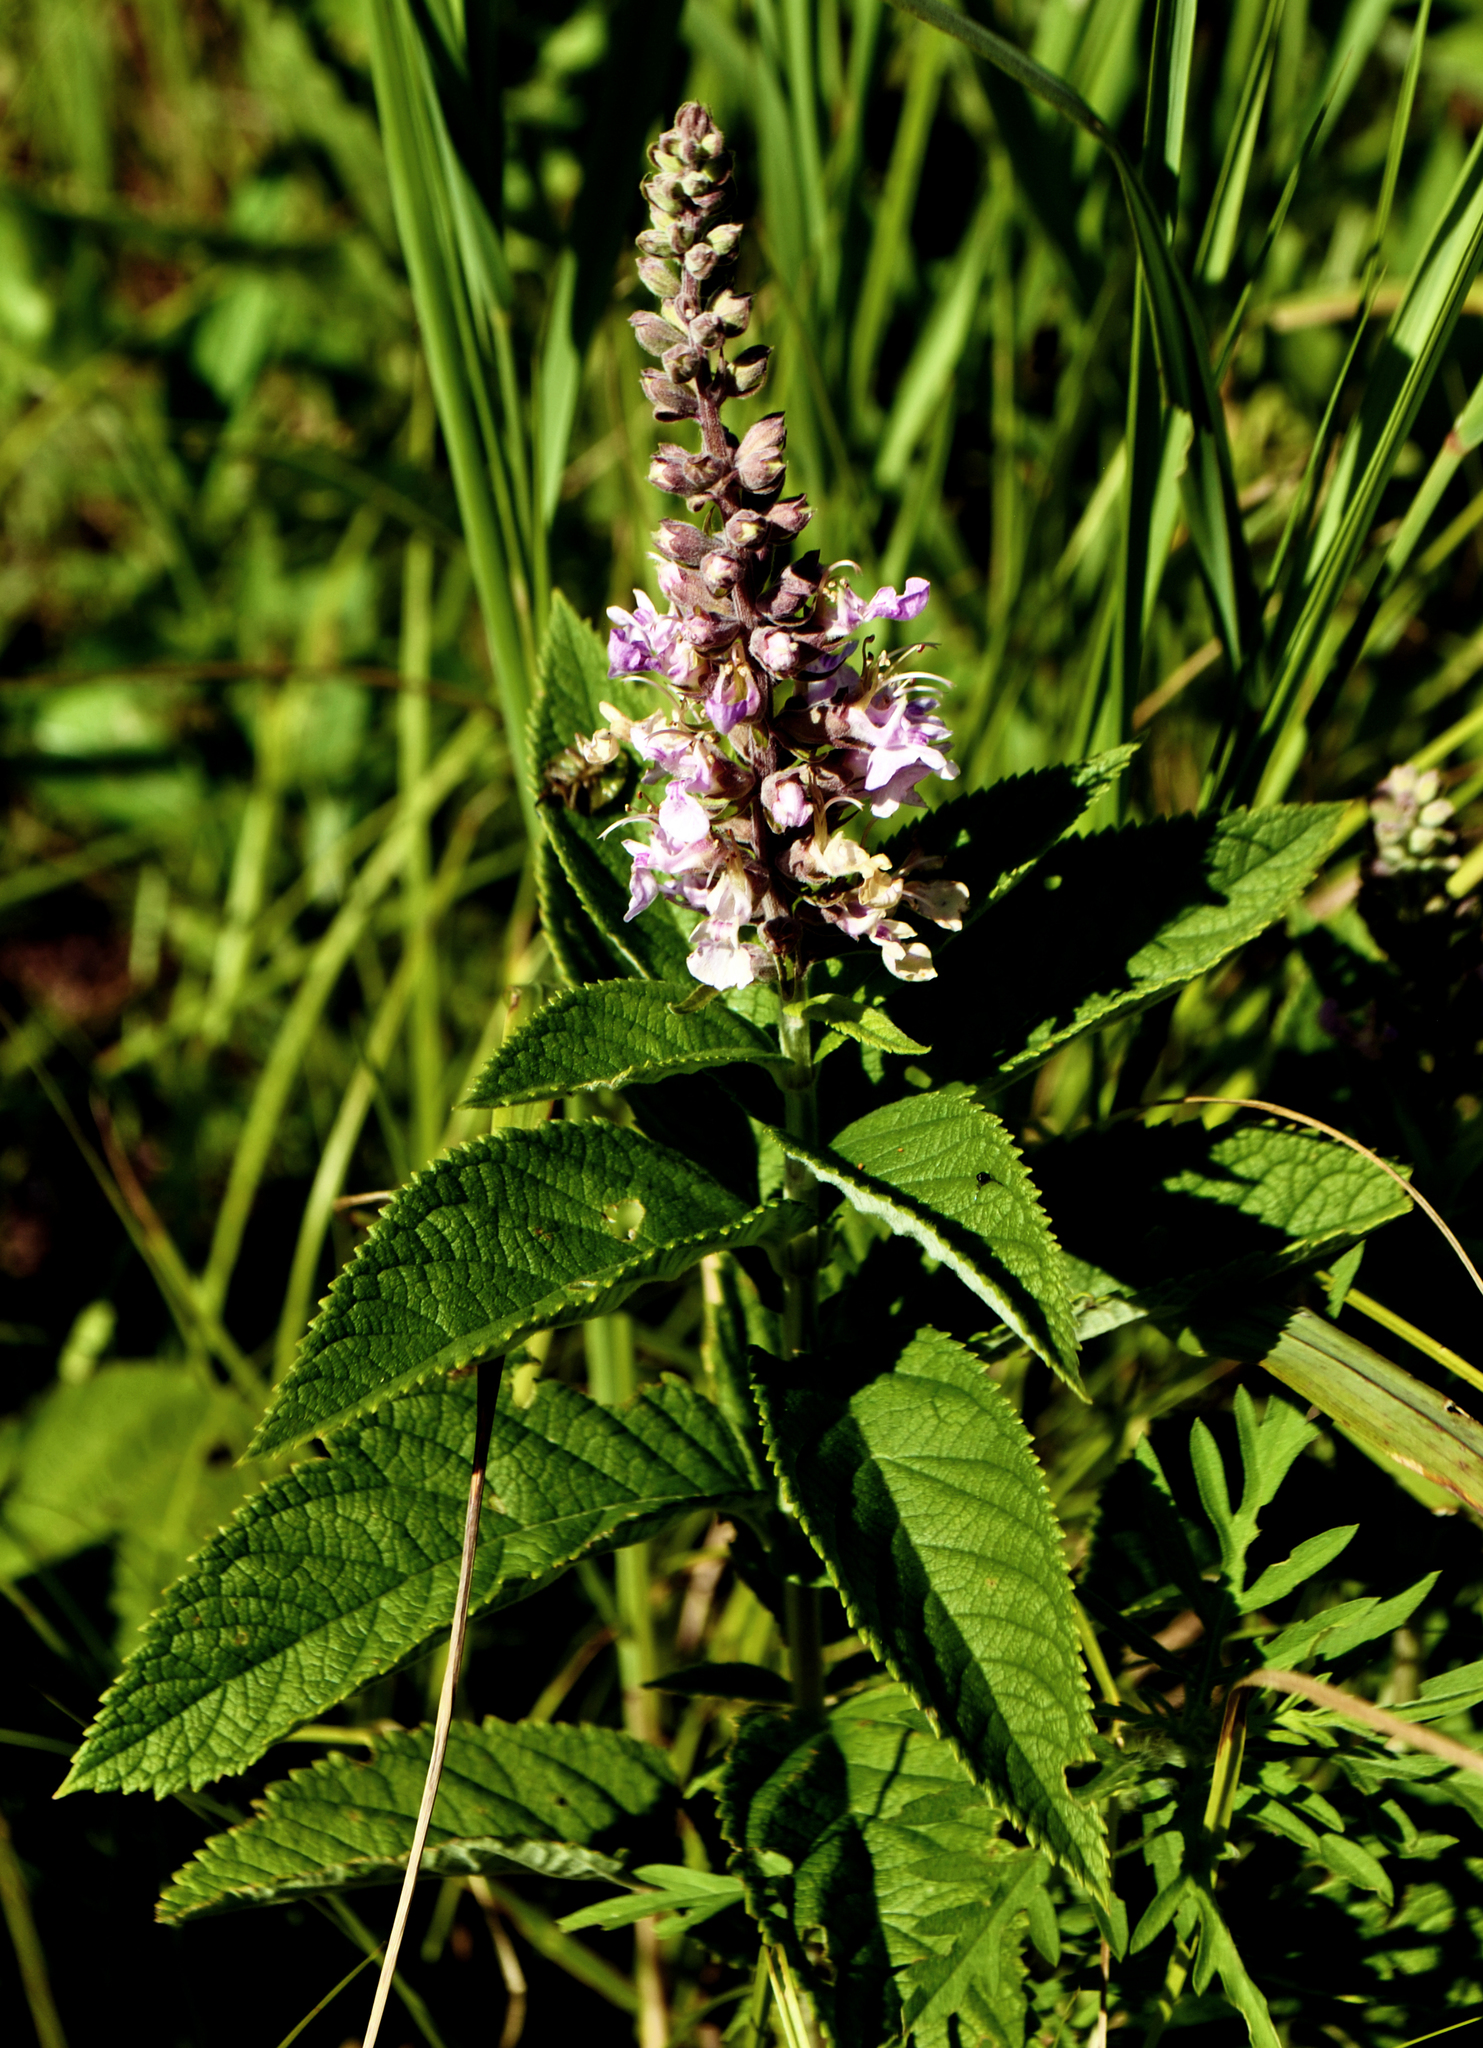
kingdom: Plantae
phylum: Tracheophyta
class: Magnoliopsida
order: Lamiales
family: Lamiaceae
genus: Teucrium
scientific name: Teucrium canadense
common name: American germander
